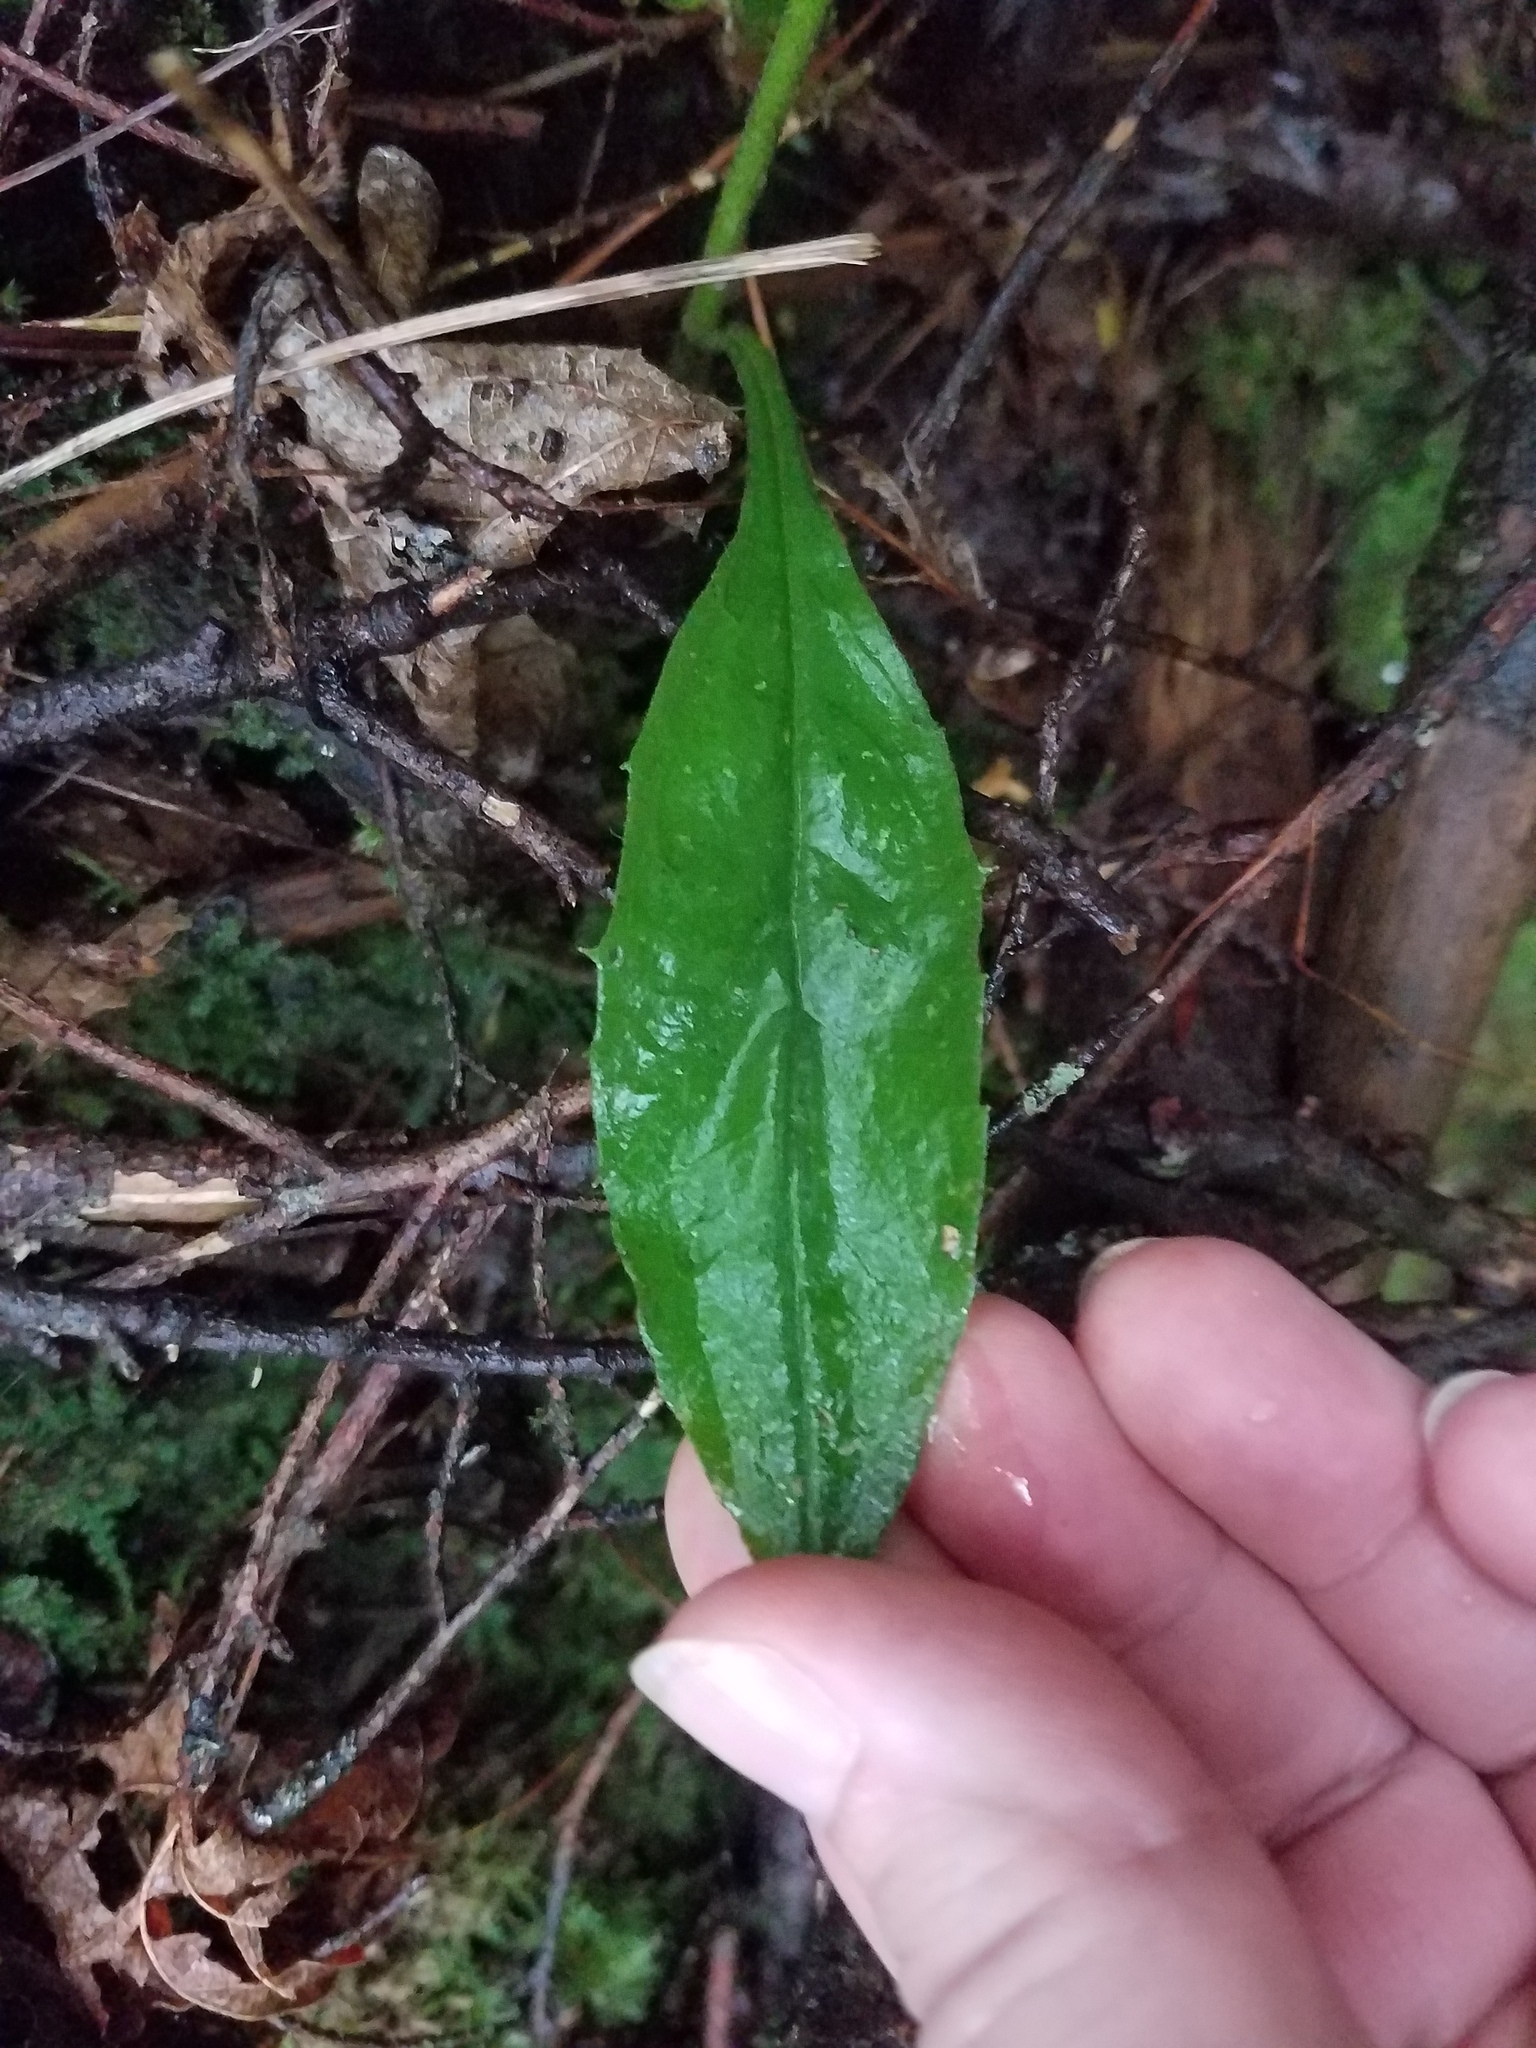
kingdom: Plantae
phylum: Tracheophyta
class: Magnoliopsida
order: Asterales
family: Asteraceae
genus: Hieracium
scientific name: Hieracium paniculatum
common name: Allegheny hawkweed
